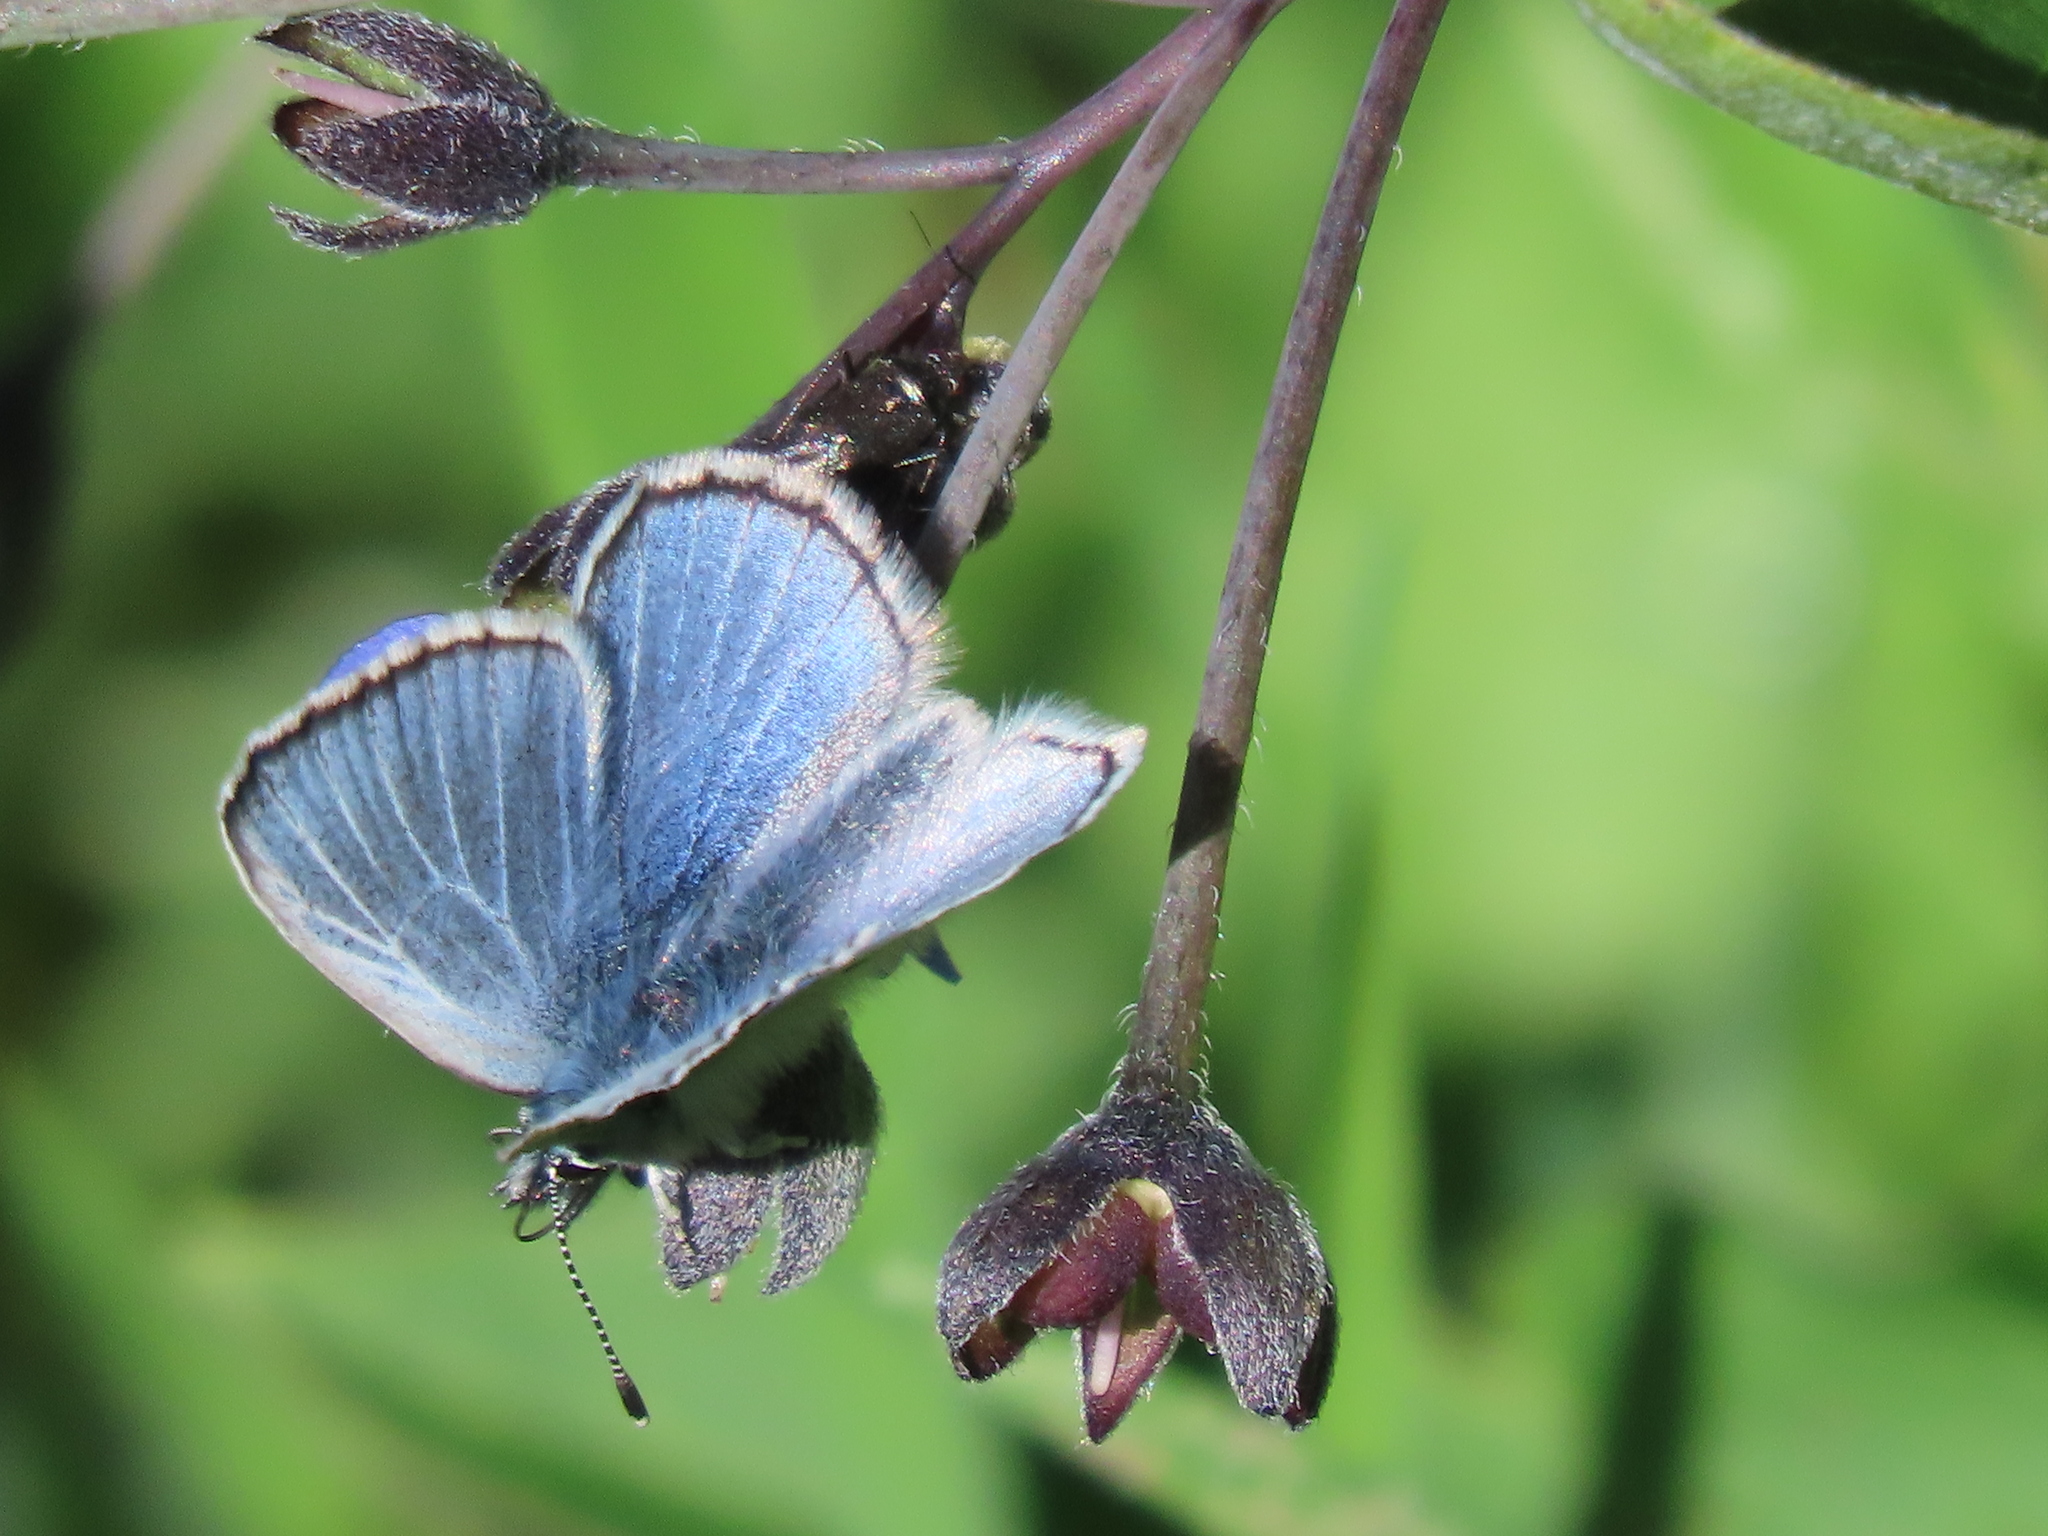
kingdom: Animalia
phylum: Arthropoda
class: Insecta
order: Lepidoptera
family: Lycaenidae
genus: Glaucopsyche
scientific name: Glaucopsyche lygdamus
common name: Silvery blue
